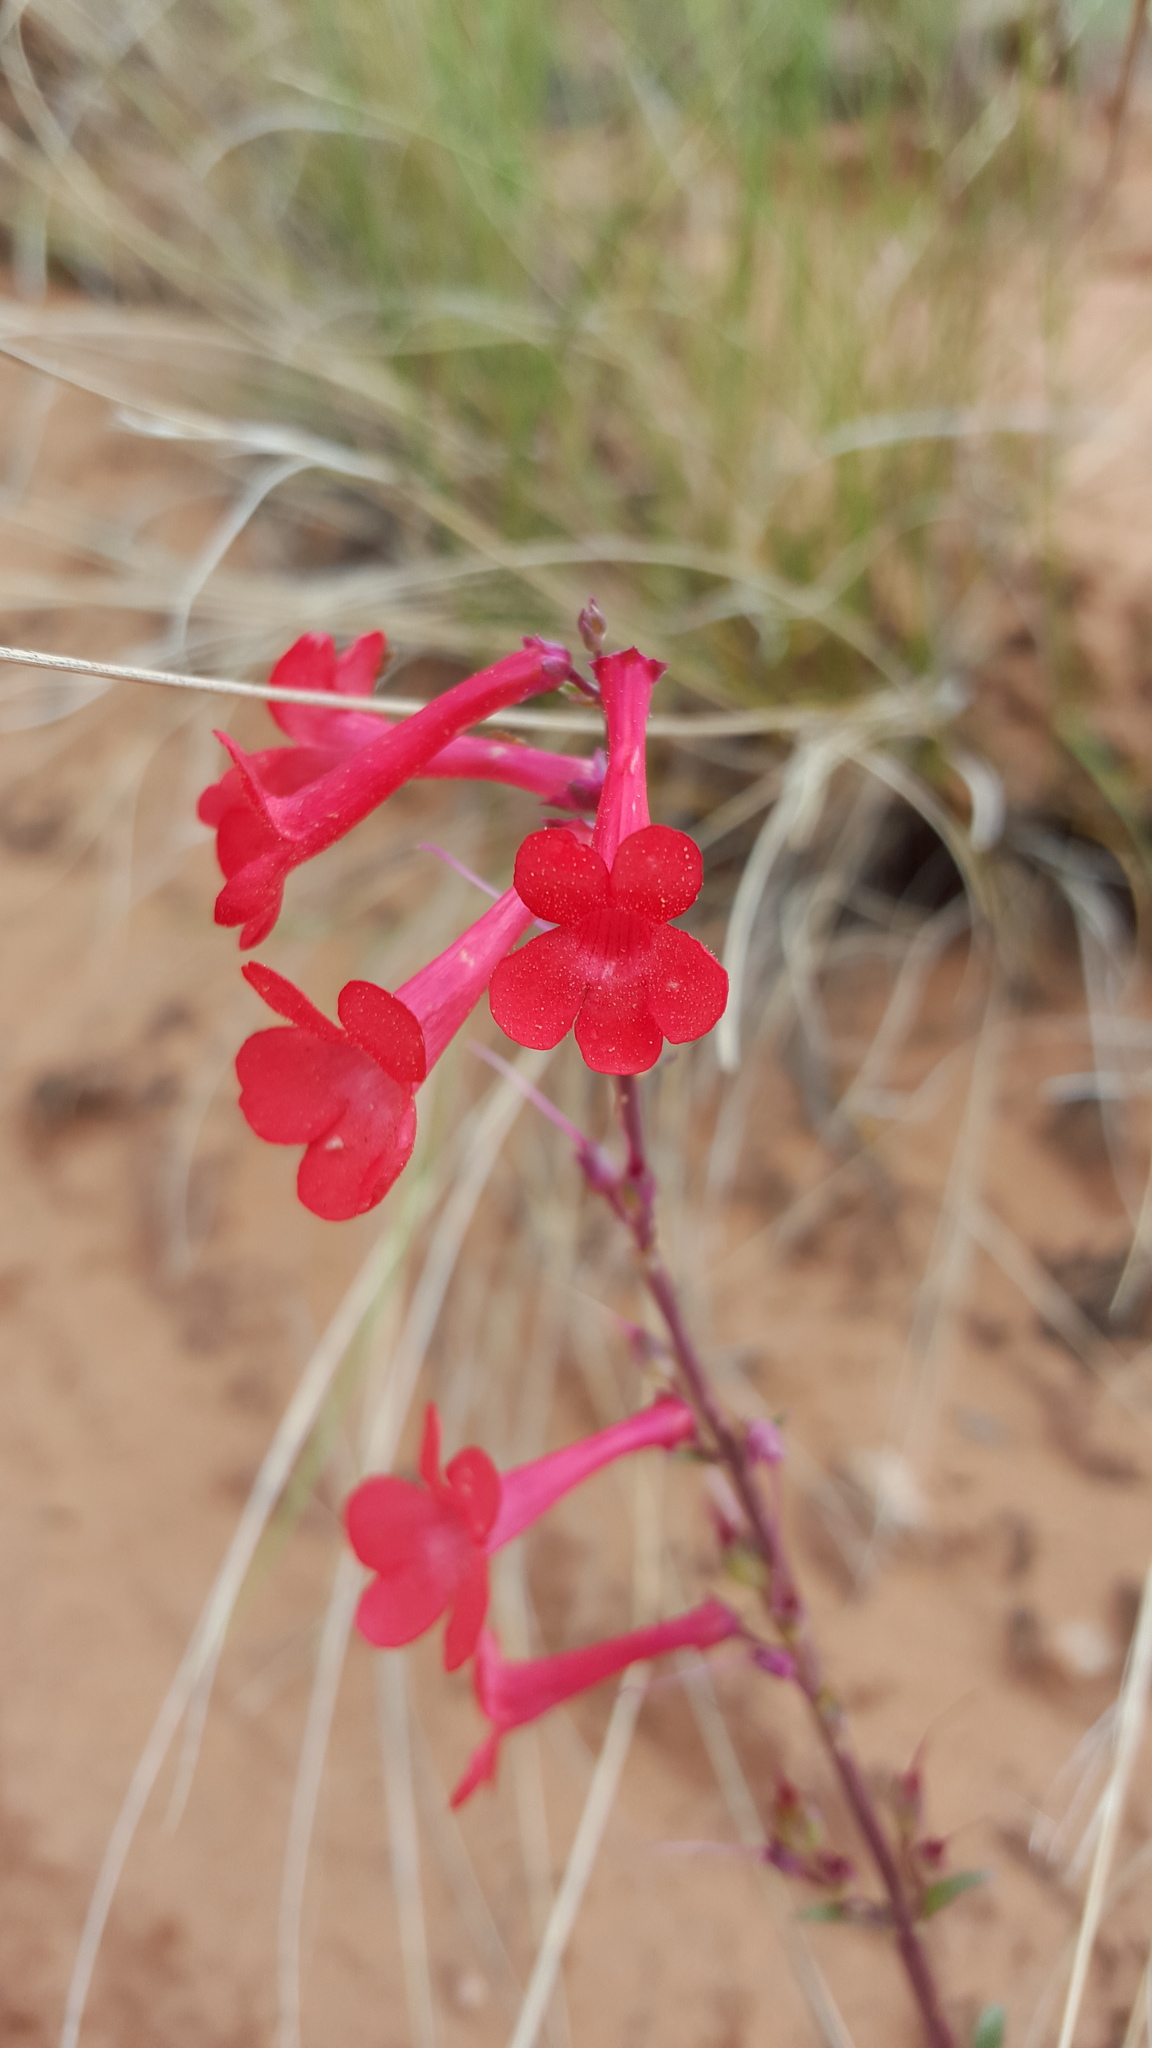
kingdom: Plantae
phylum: Tracheophyta
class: Magnoliopsida
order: Lamiales
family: Plantaginaceae
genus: Penstemon
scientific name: Penstemon utahensis
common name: Utah penstemon
